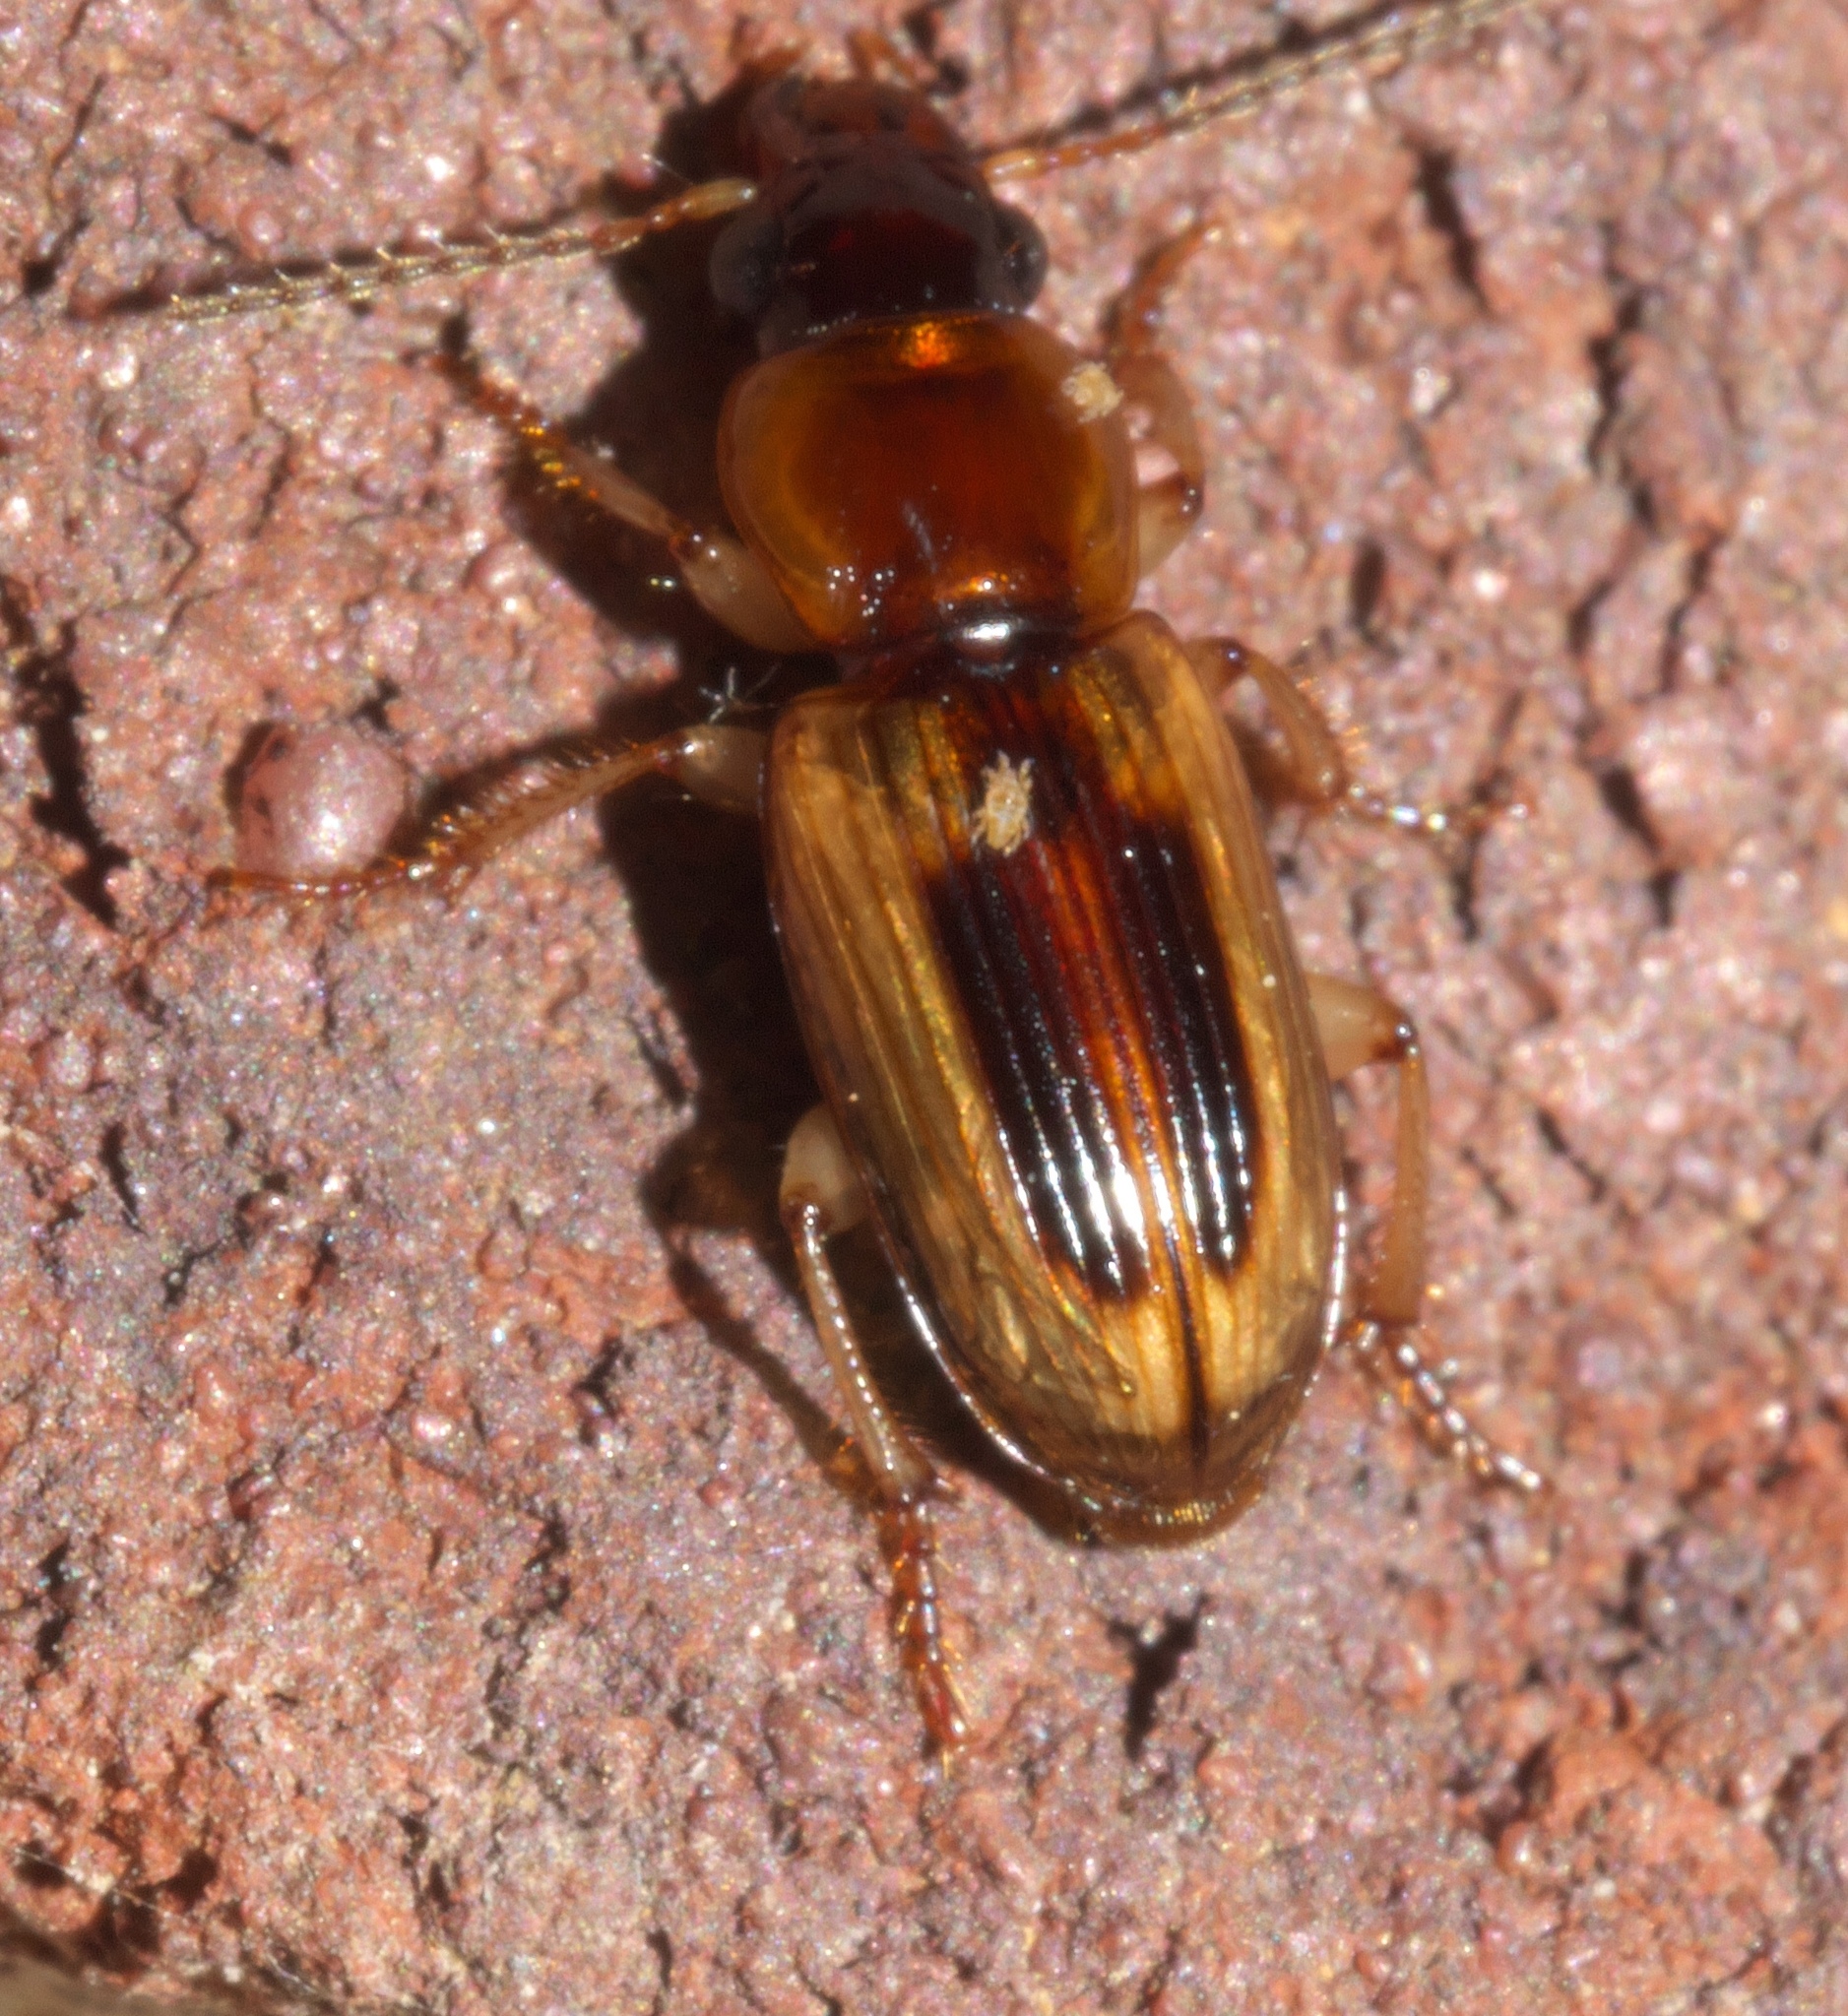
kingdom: Animalia
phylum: Arthropoda
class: Insecta
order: Coleoptera
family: Carabidae
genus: Stenolophus
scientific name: Stenolophus lecontei
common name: Leconte's seedcorn beetle
